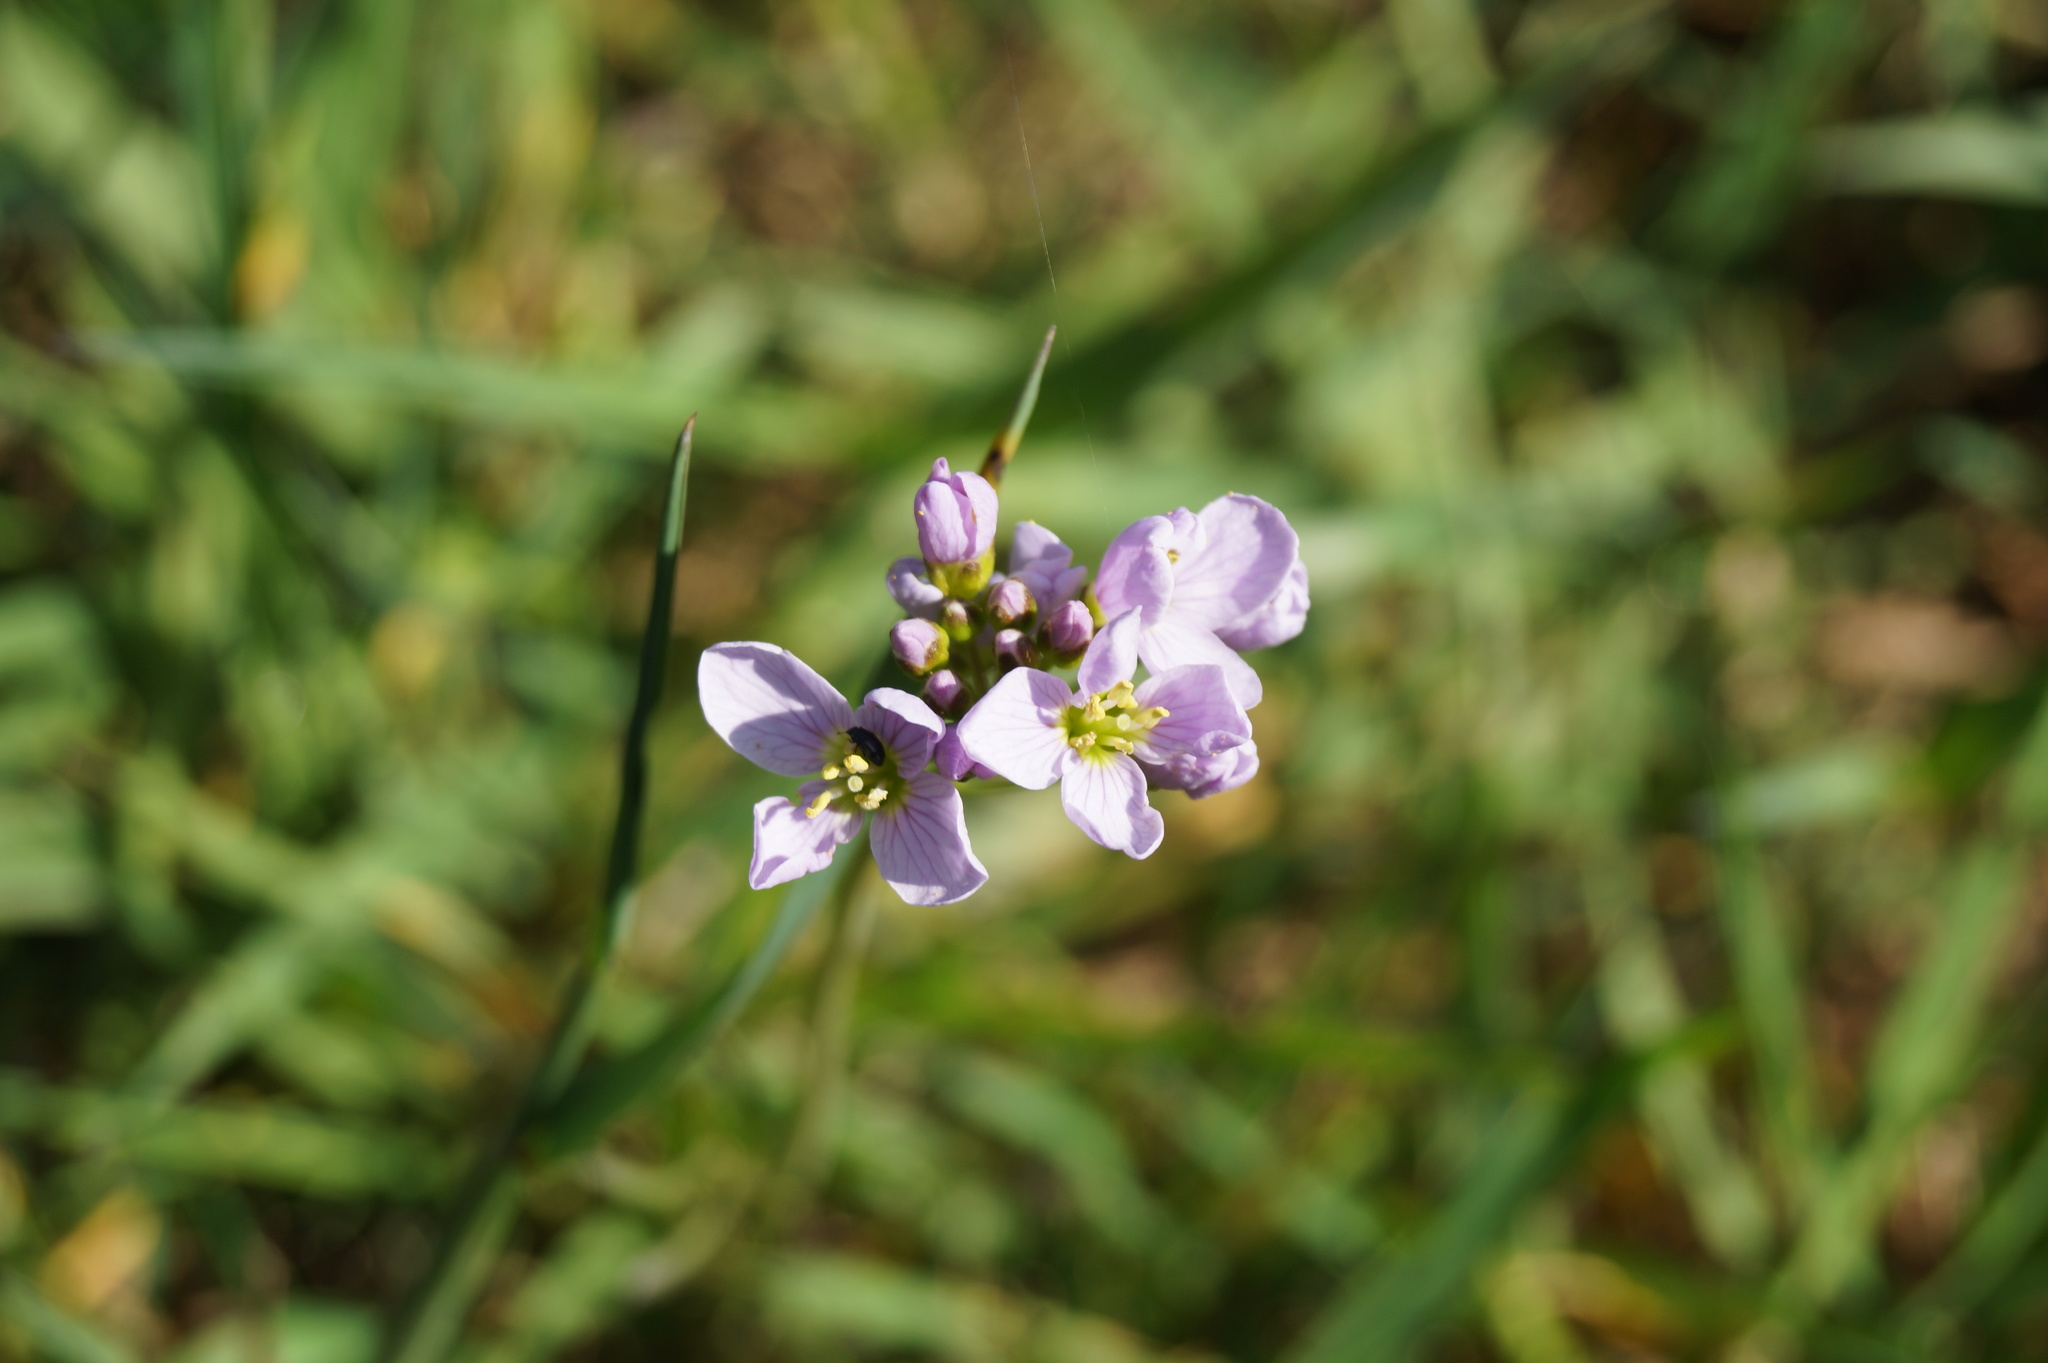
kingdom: Plantae
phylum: Tracheophyta
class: Magnoliopsida
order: Brassicales
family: Brassicaceae
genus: Cardamine
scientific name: Cardamine pratensis
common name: Cuckoo flower
